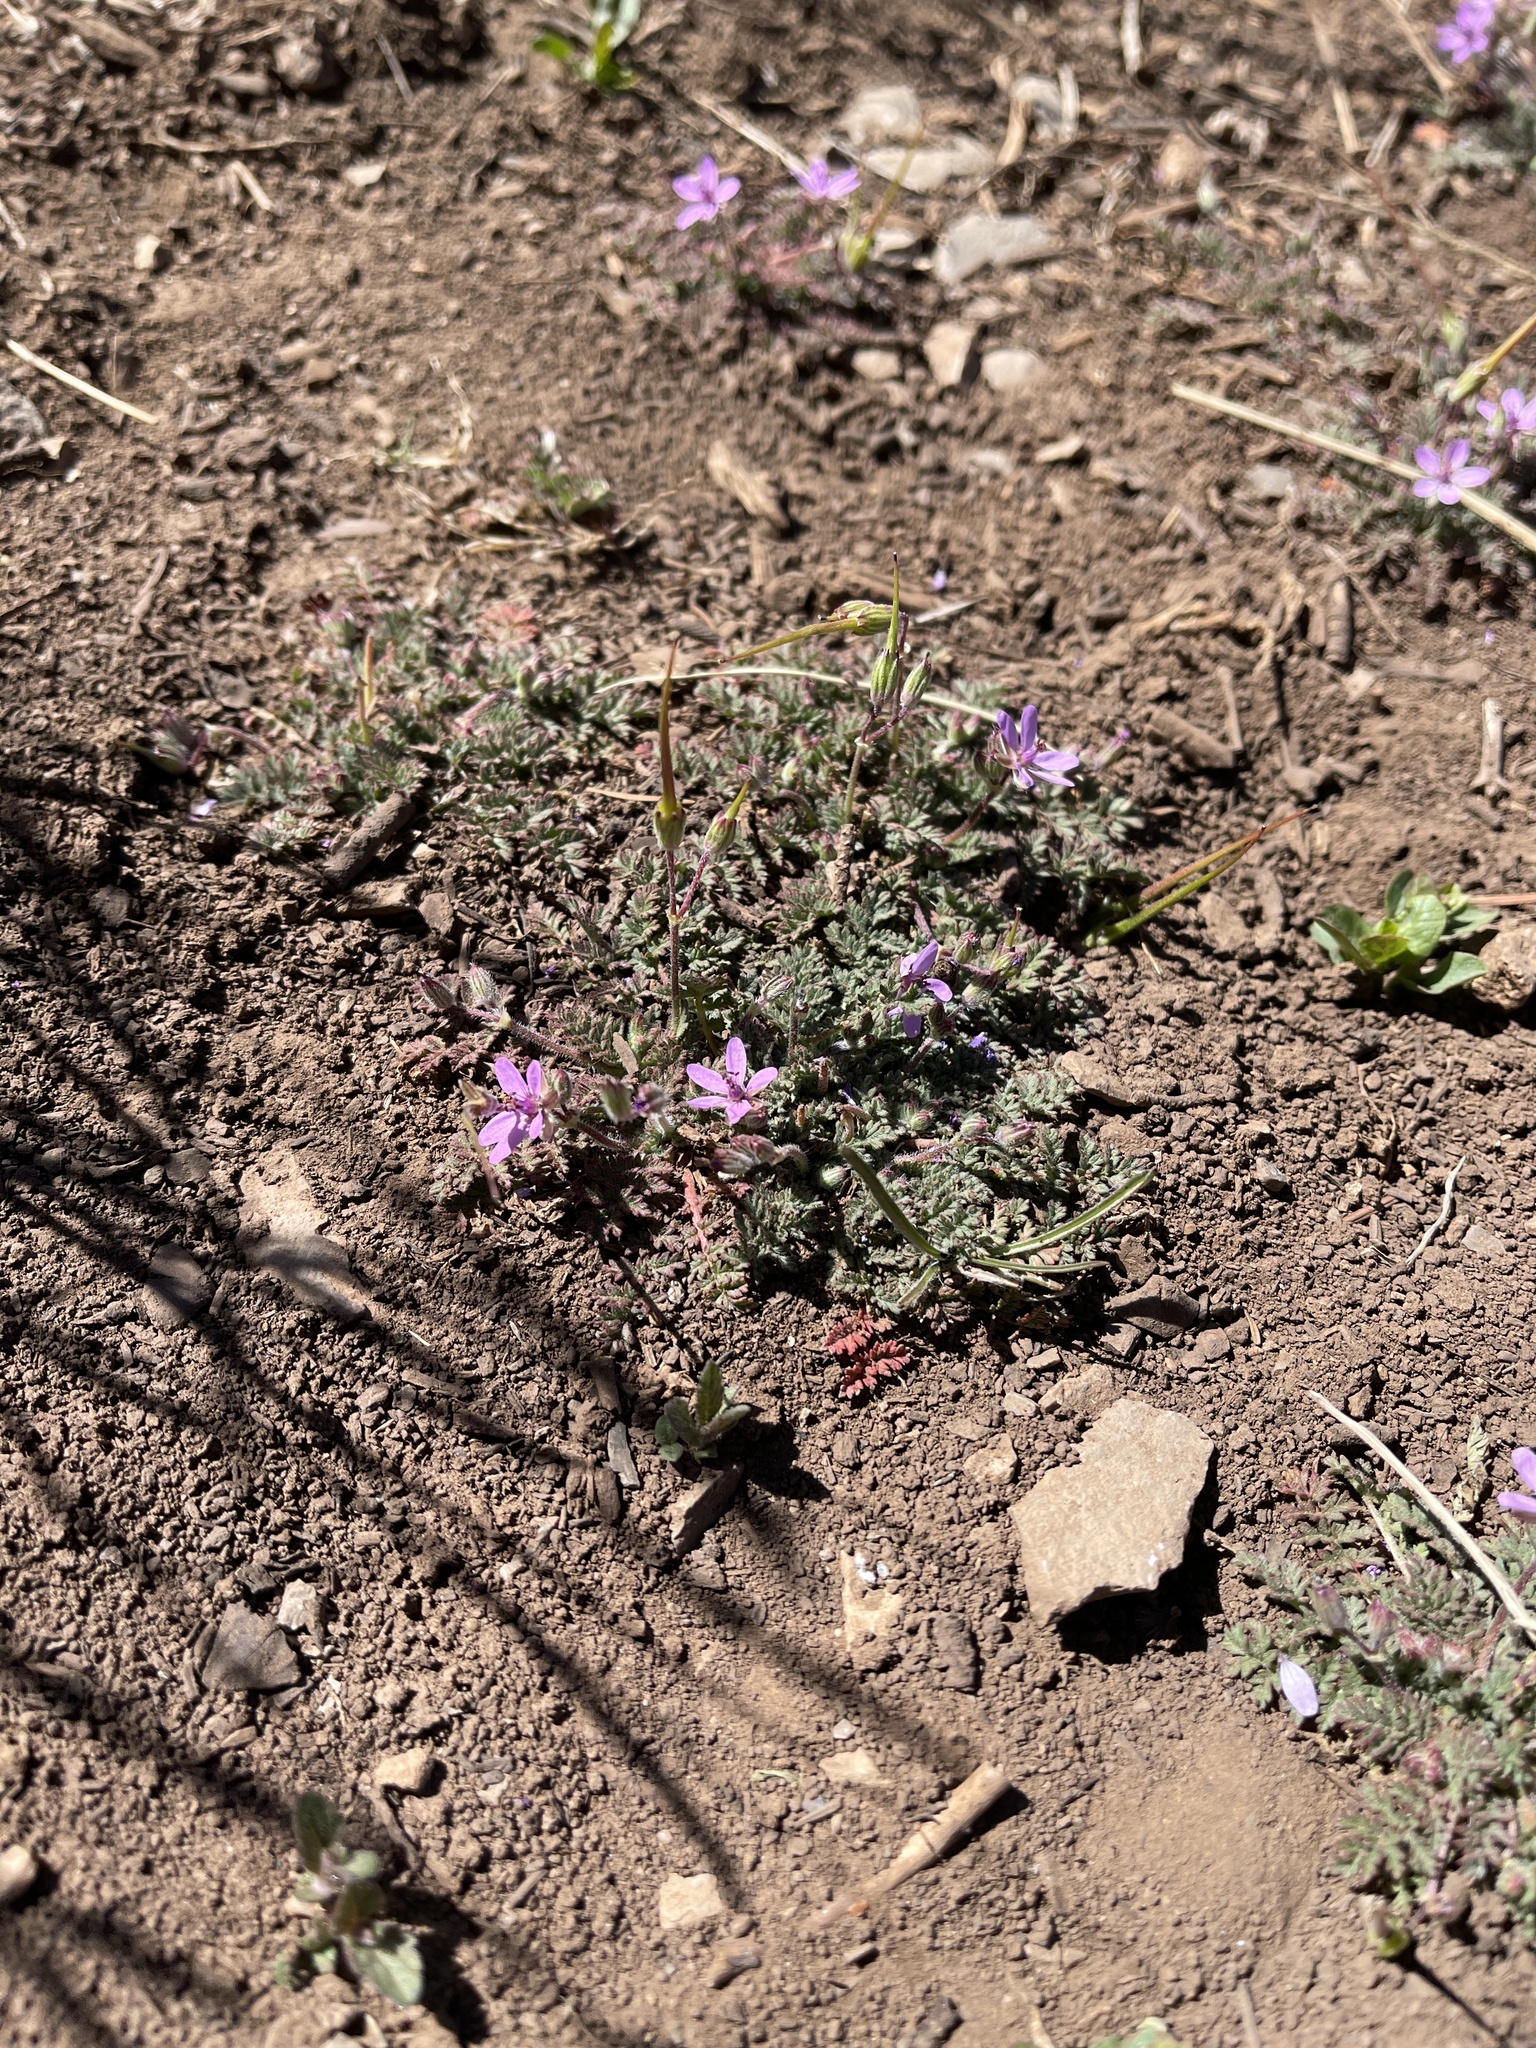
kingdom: Plantae
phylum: Tracheophyta
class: Magnoliopsida
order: Geraniales
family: Geraniaceae
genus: Erodium
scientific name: Erodium cicutarium
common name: Common stork's-bill
